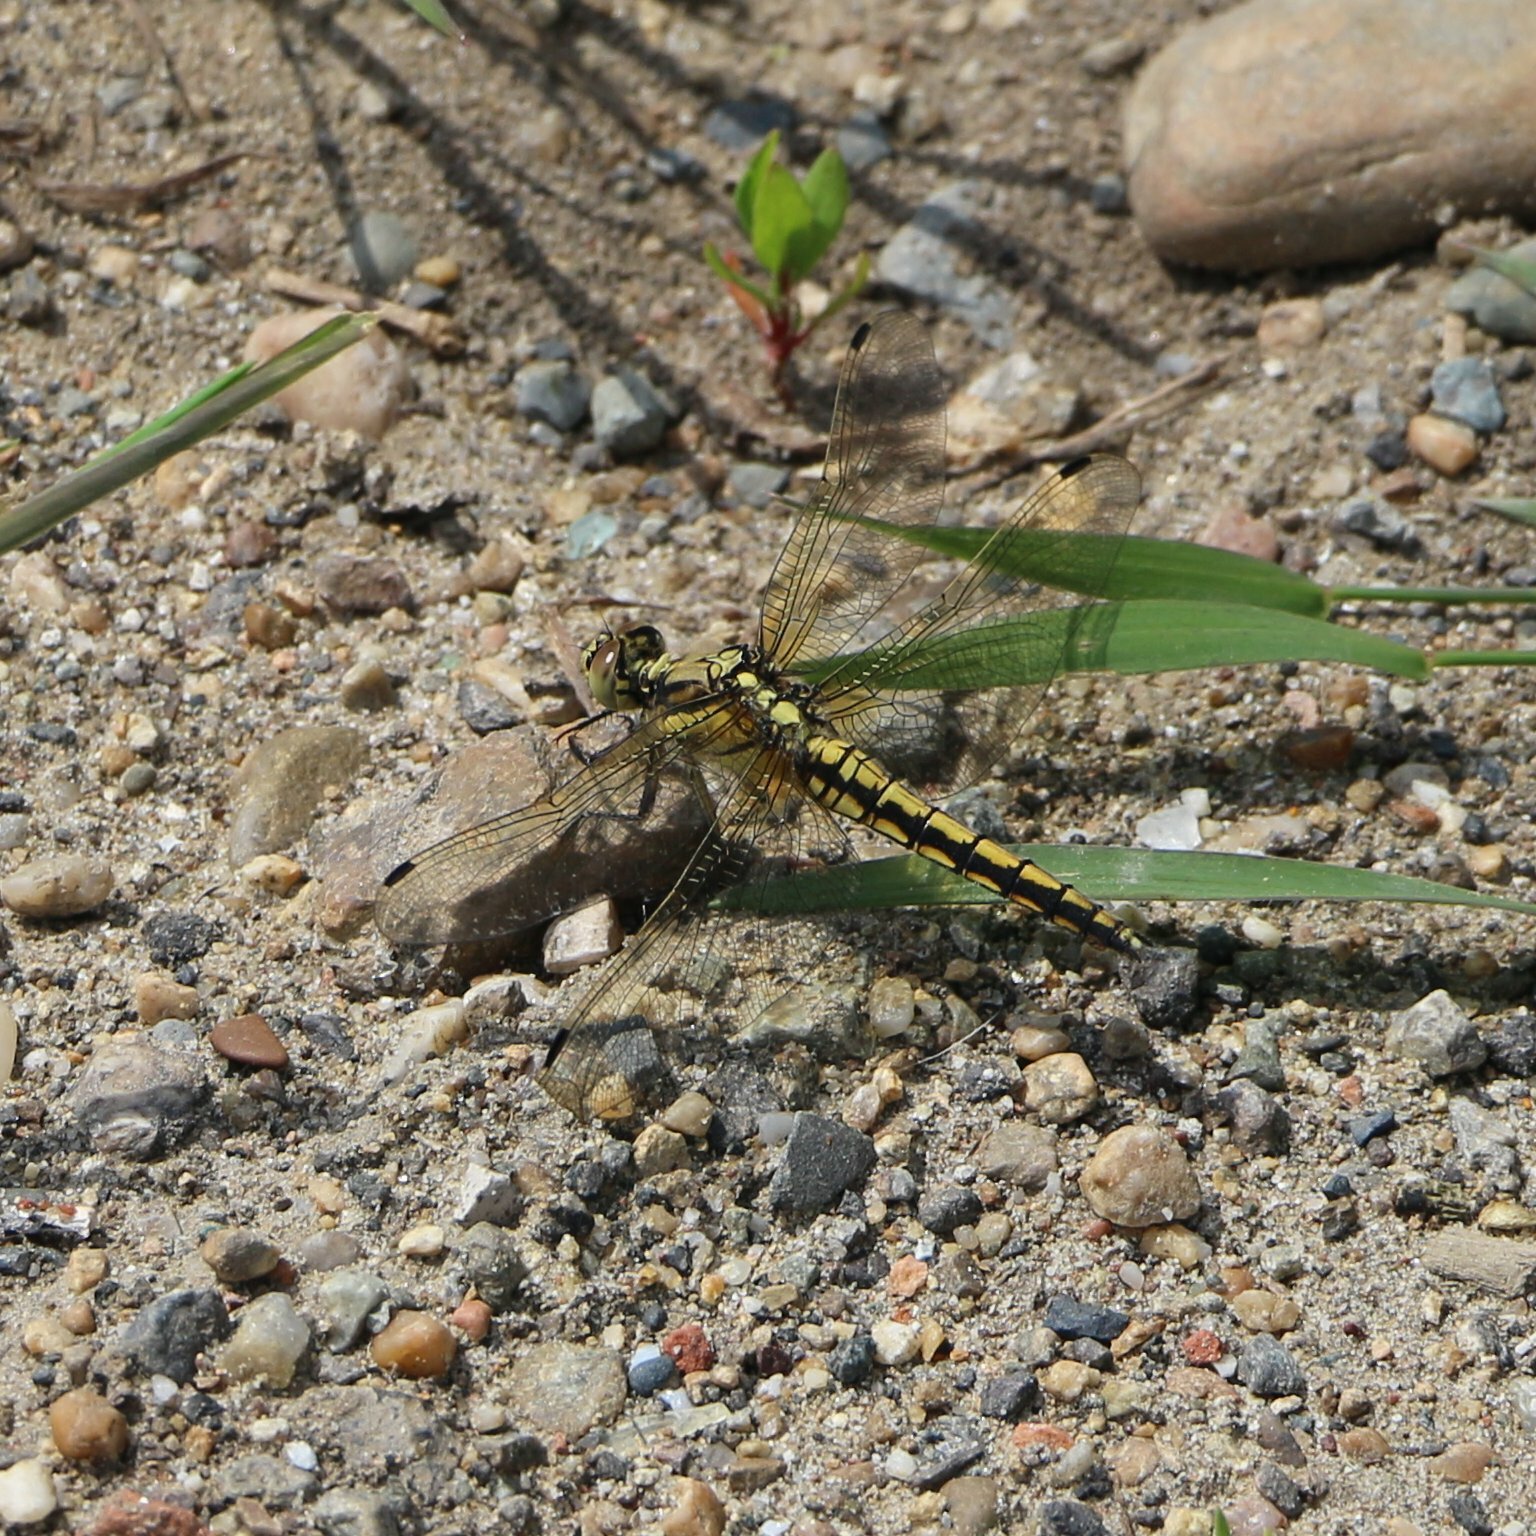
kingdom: Animalia
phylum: Arthropoda
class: Insecta
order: Odonata
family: Libellulidae
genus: Orthetrum
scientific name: Orthetrum cancellatum
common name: Black-tailed skimmer
